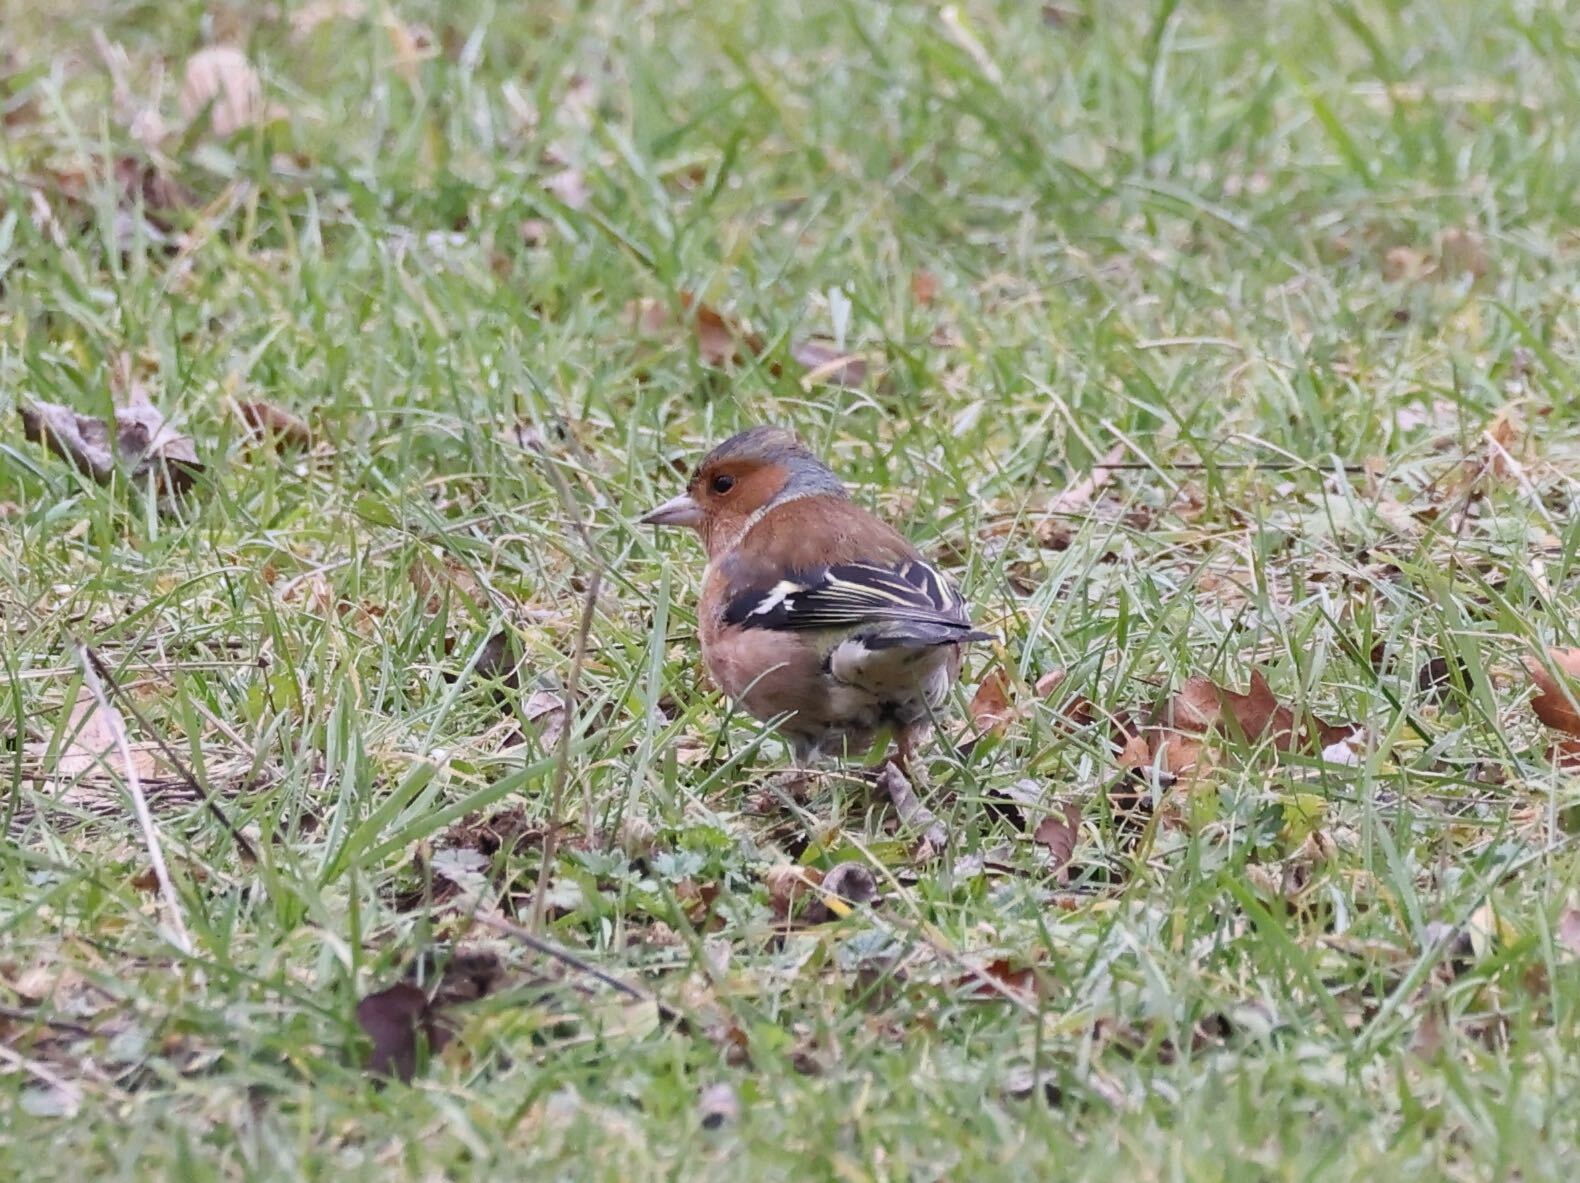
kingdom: Animalia
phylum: Chordata
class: Aves
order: Passeriformes
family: Fringillidae
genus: Fringilla
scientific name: Fringilla coelebs
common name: Common chaffinch
